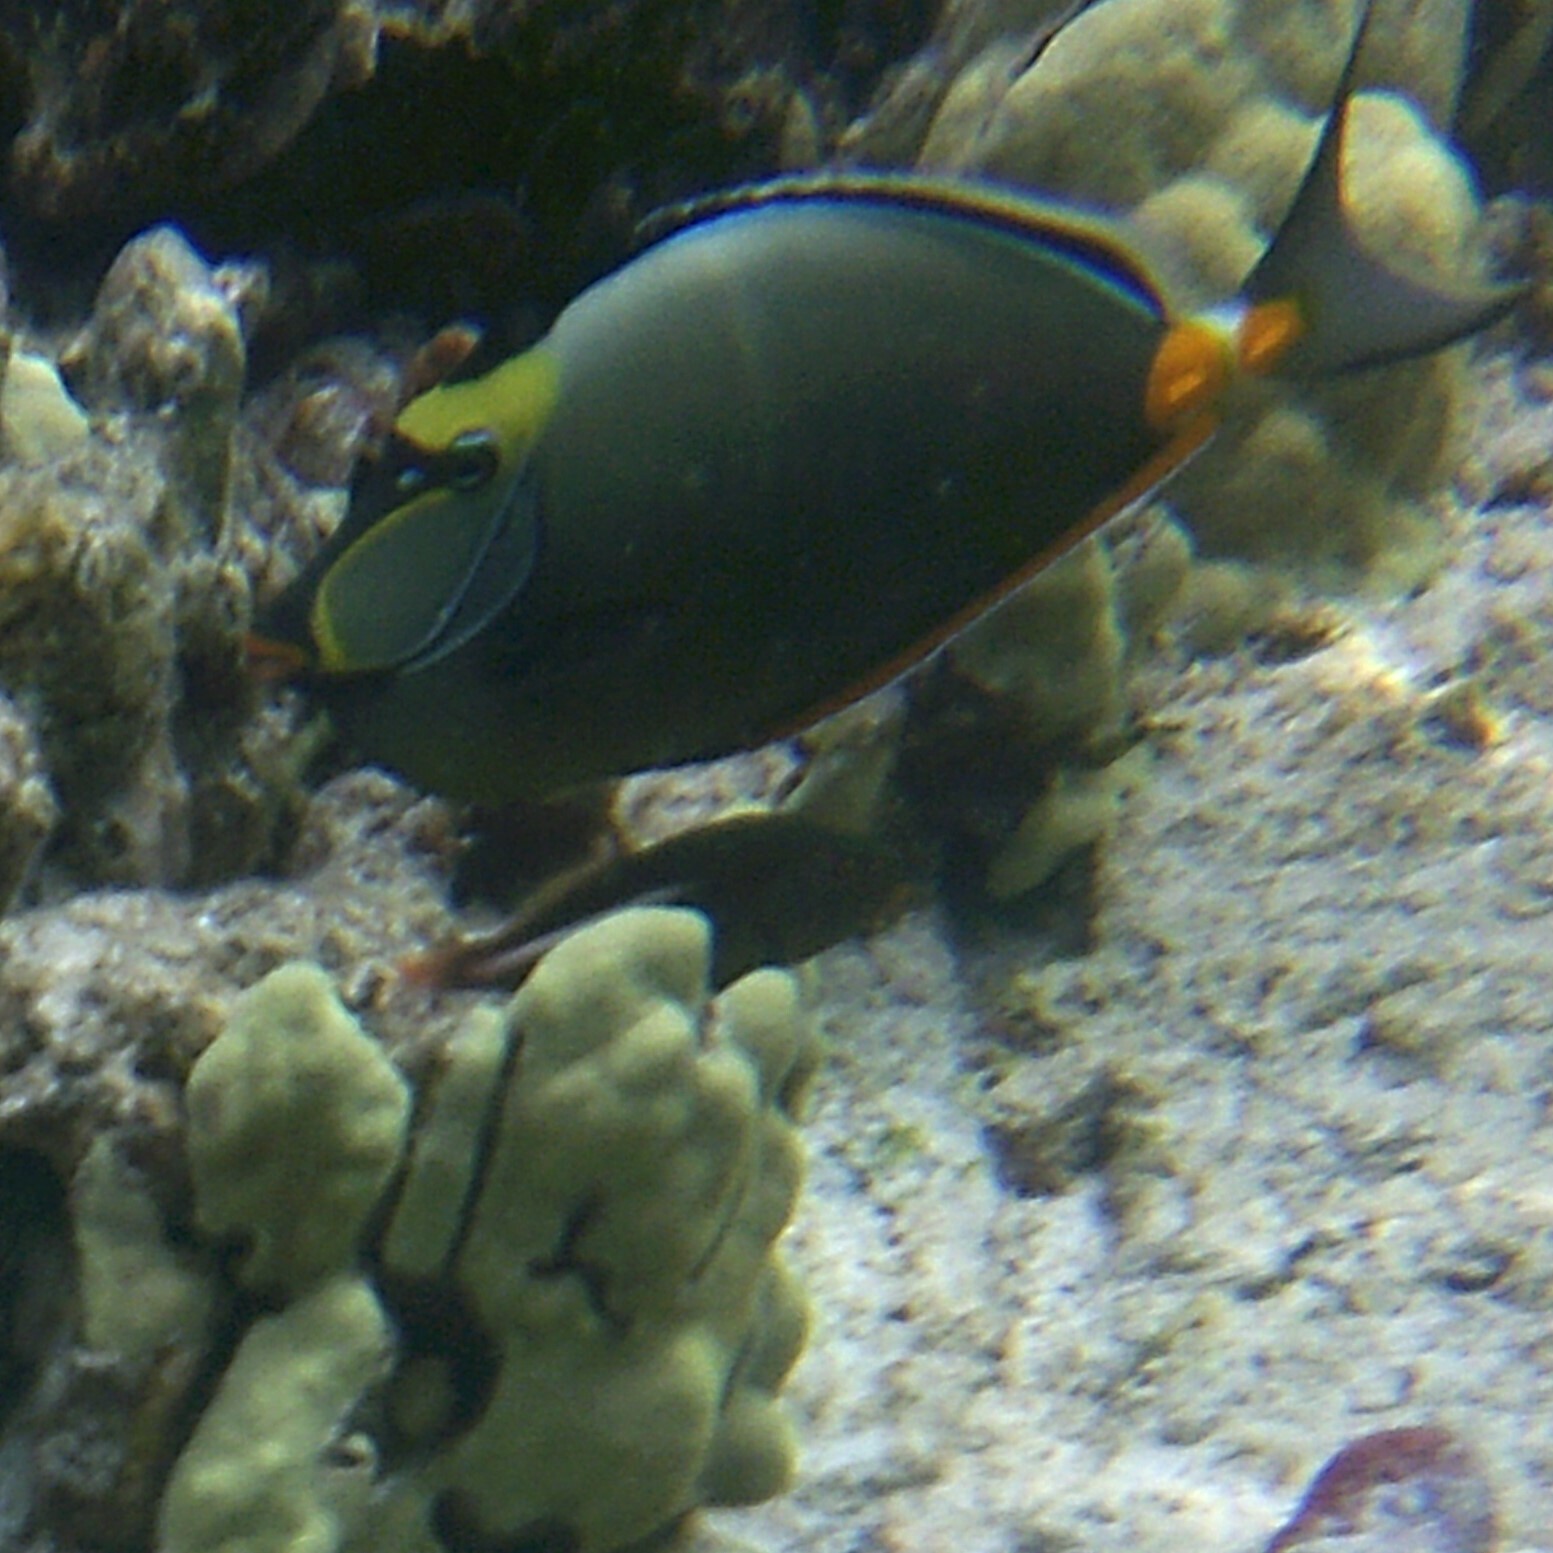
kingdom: Animalia
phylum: Chordata
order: Perciformes
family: Acanthuridae
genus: Naso
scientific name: Naso lituratus
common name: Orangespine unicornfish
